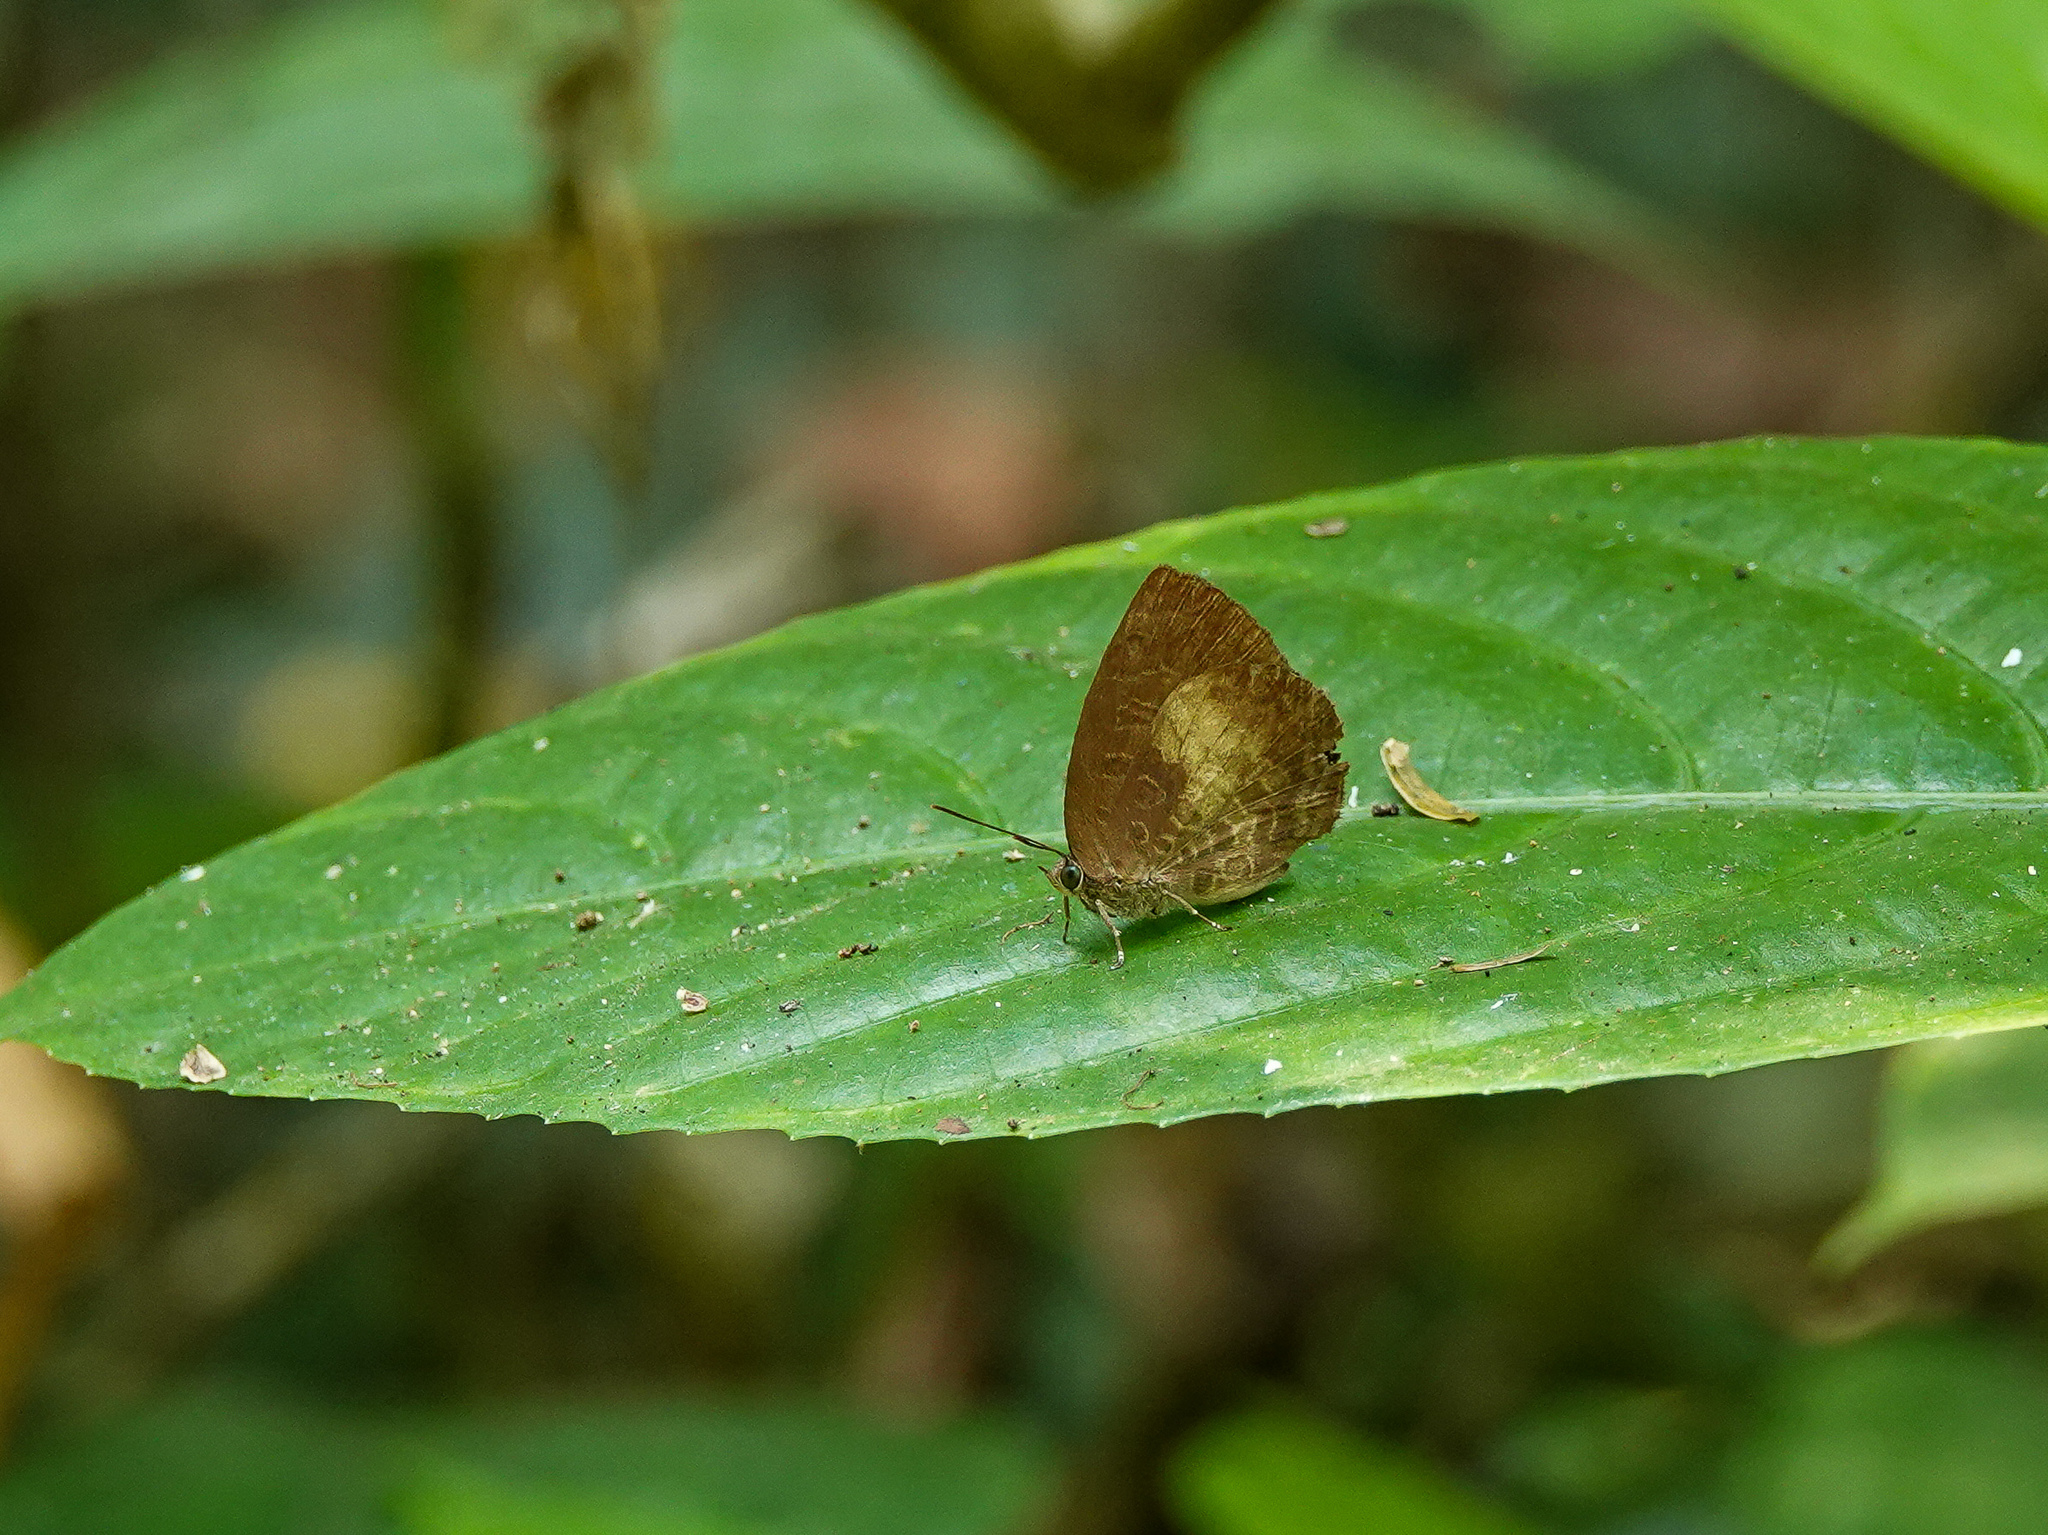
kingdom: Animalia
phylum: Arthropoda
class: Insecta
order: Lepidoptera
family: Lycaenidae
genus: Arhopala
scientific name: Arhopala perimuta
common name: Yellowdisc oakblue
